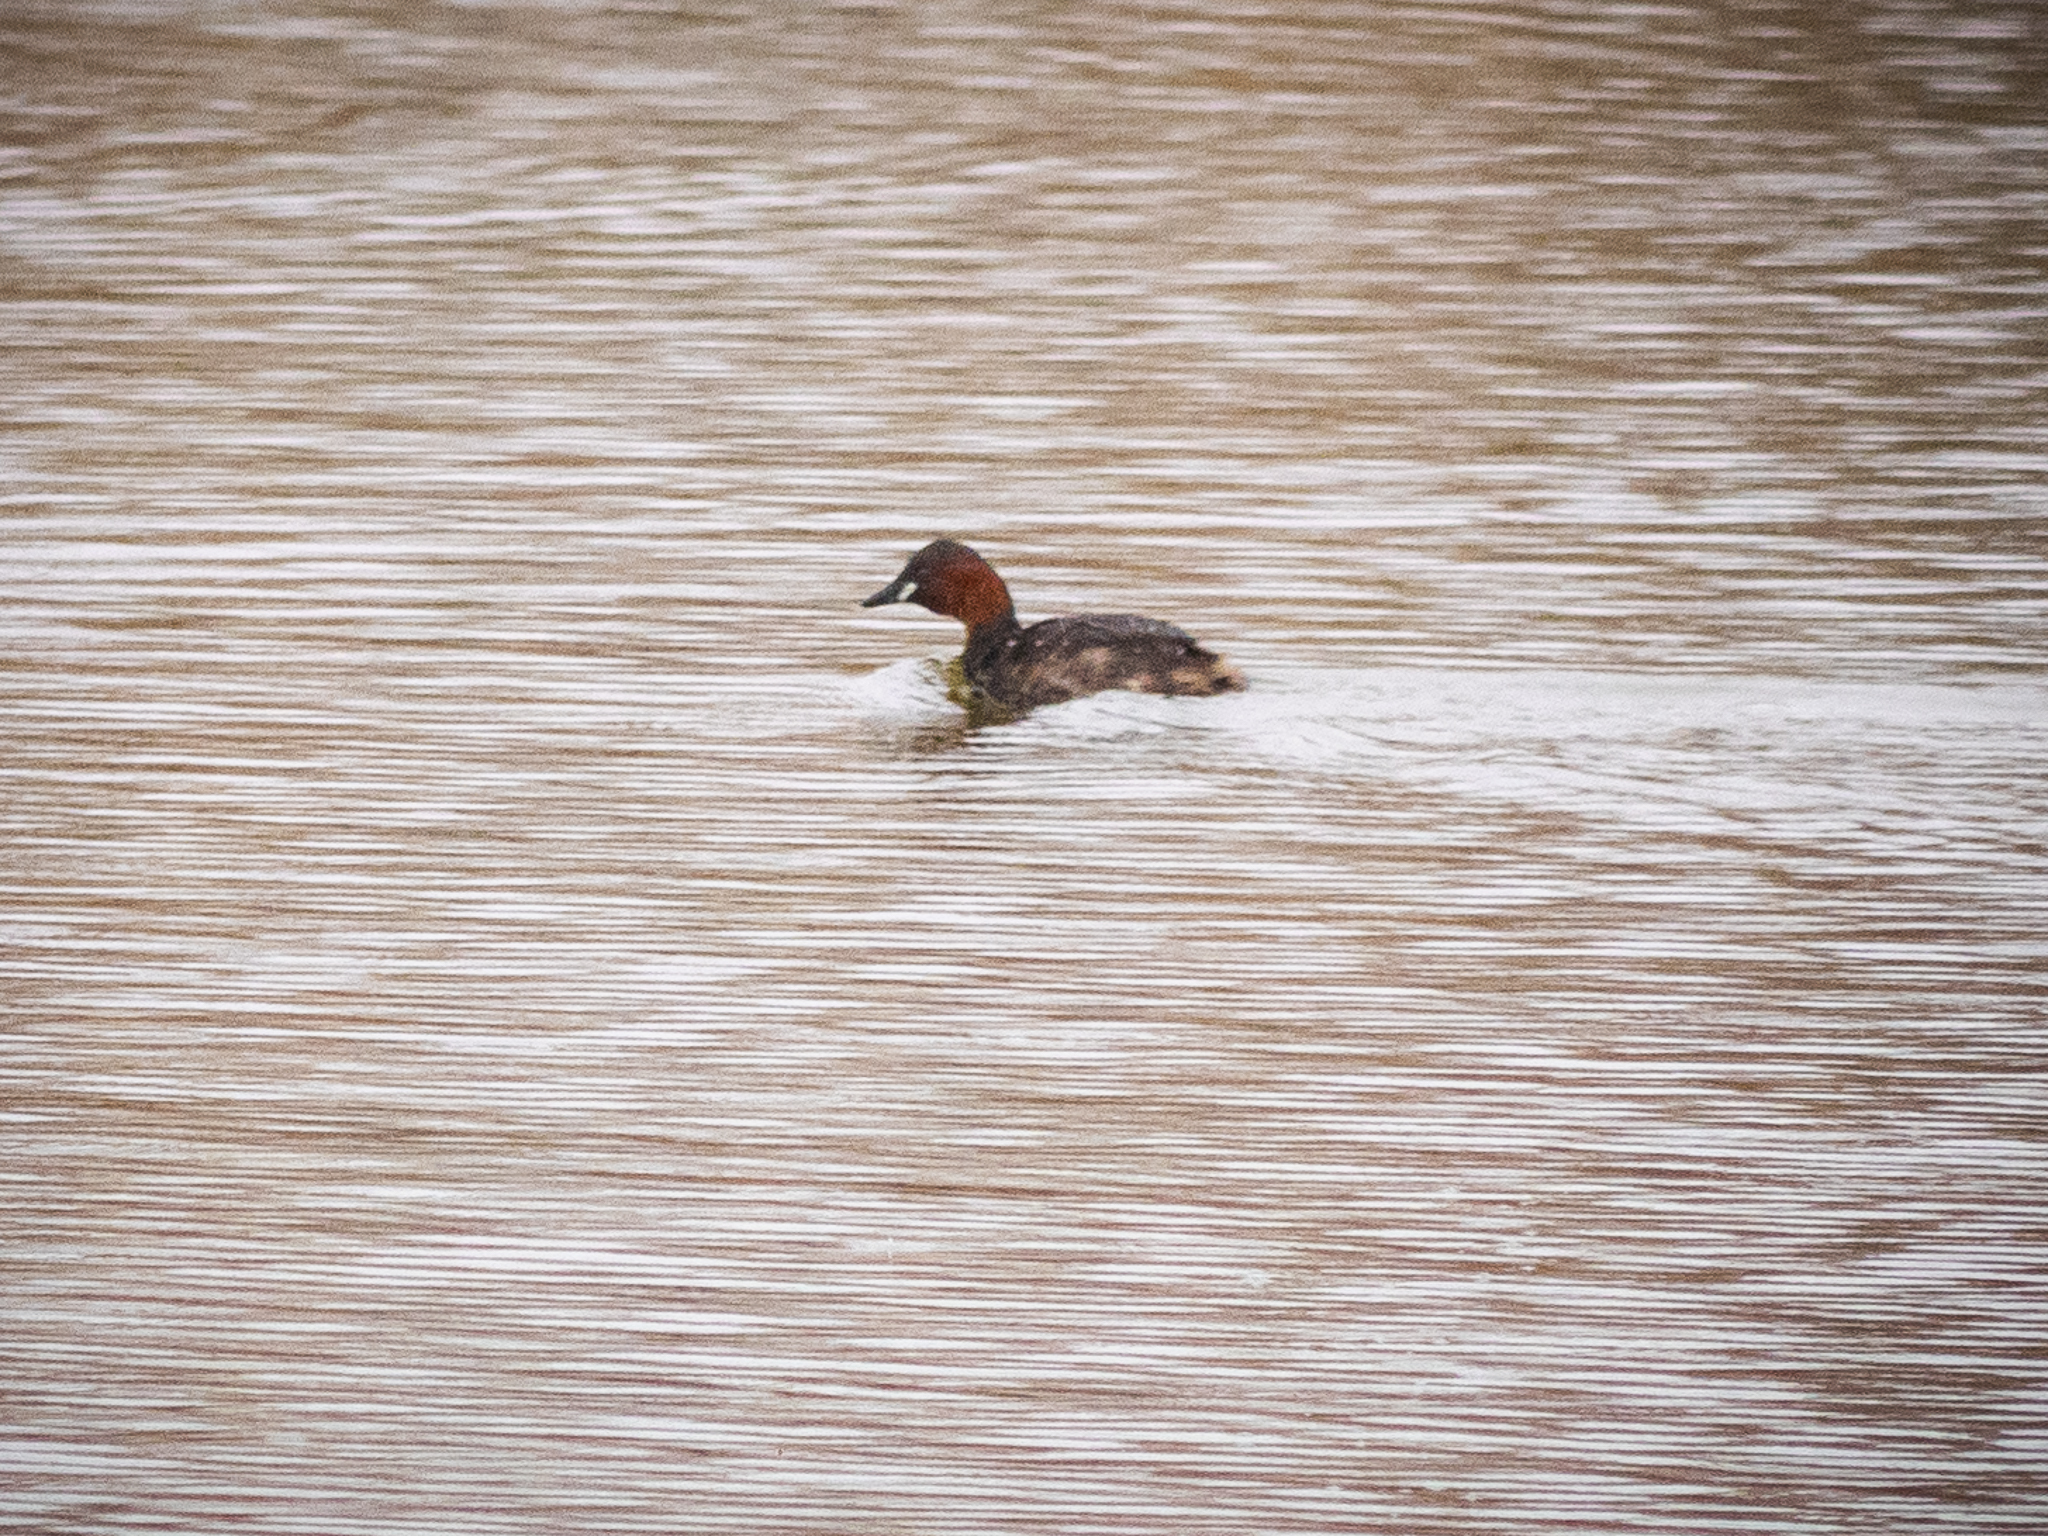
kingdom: Animalia
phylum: Chordata
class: Aves
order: Podicipediformes
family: Podicipedidae
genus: Tachybaptus
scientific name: Tachybaptus ruficollis
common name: Little grebe
